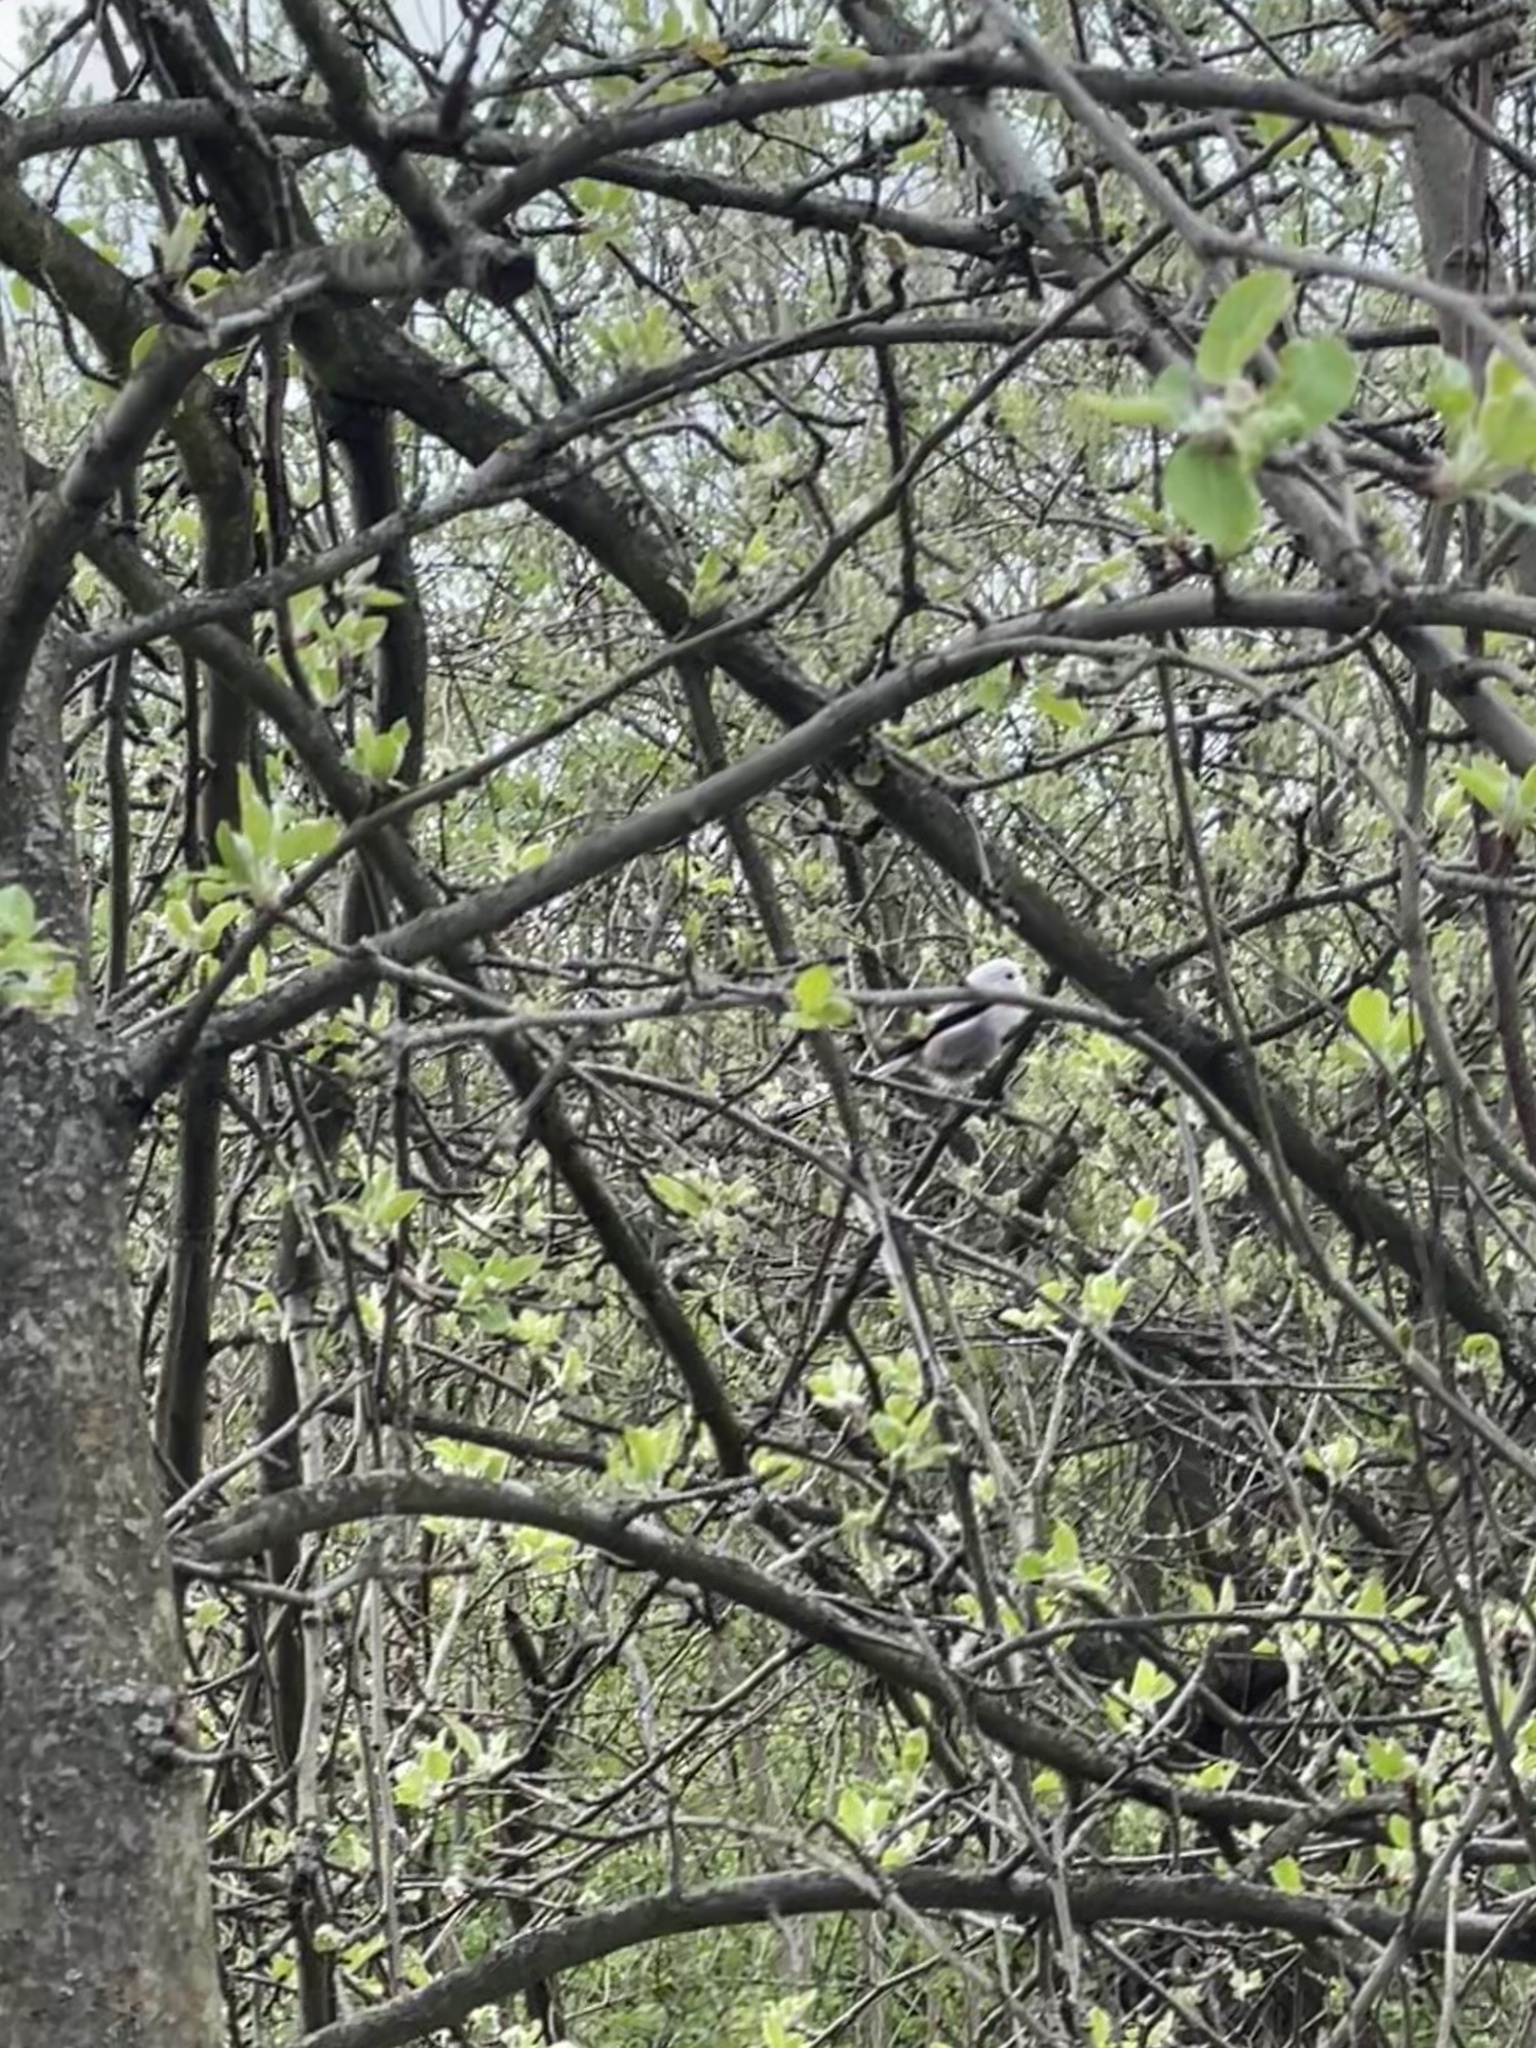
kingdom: Animalia
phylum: Chordata
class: Aves
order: Passeriformes
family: Aegithalidae
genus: Aegithalos
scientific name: Aegithalos caudatus
